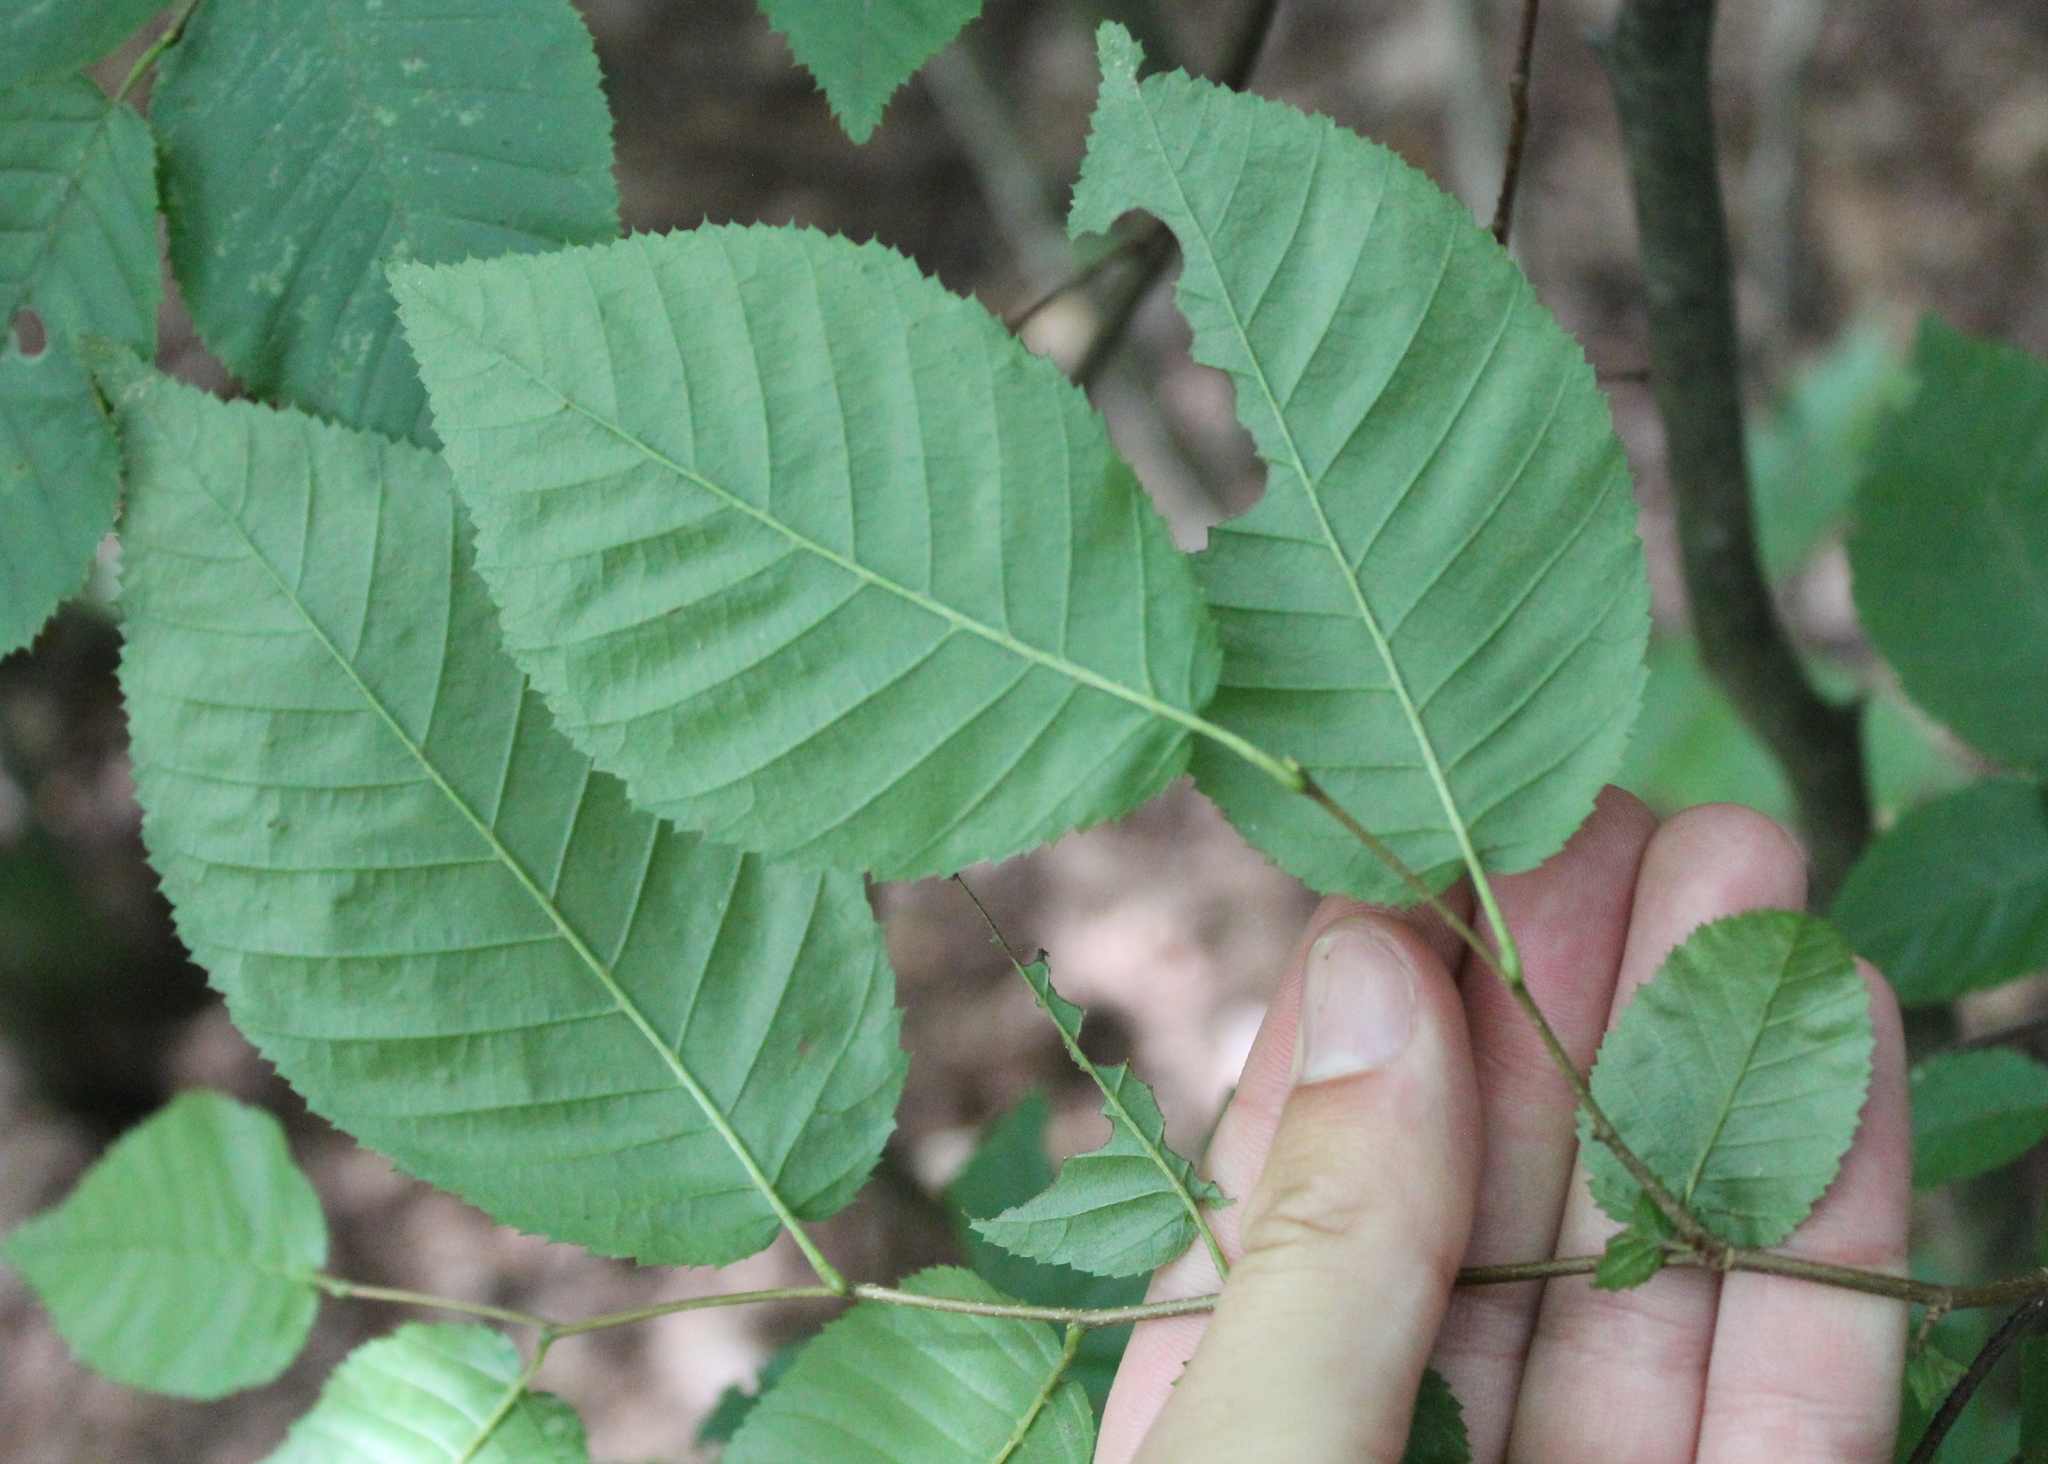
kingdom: Plantae
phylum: Tracheophyta
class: Magnoliopsida
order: Fagales
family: Betulaceae
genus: Carpinus
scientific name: Carpinus caroliniana
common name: American hornbeam
